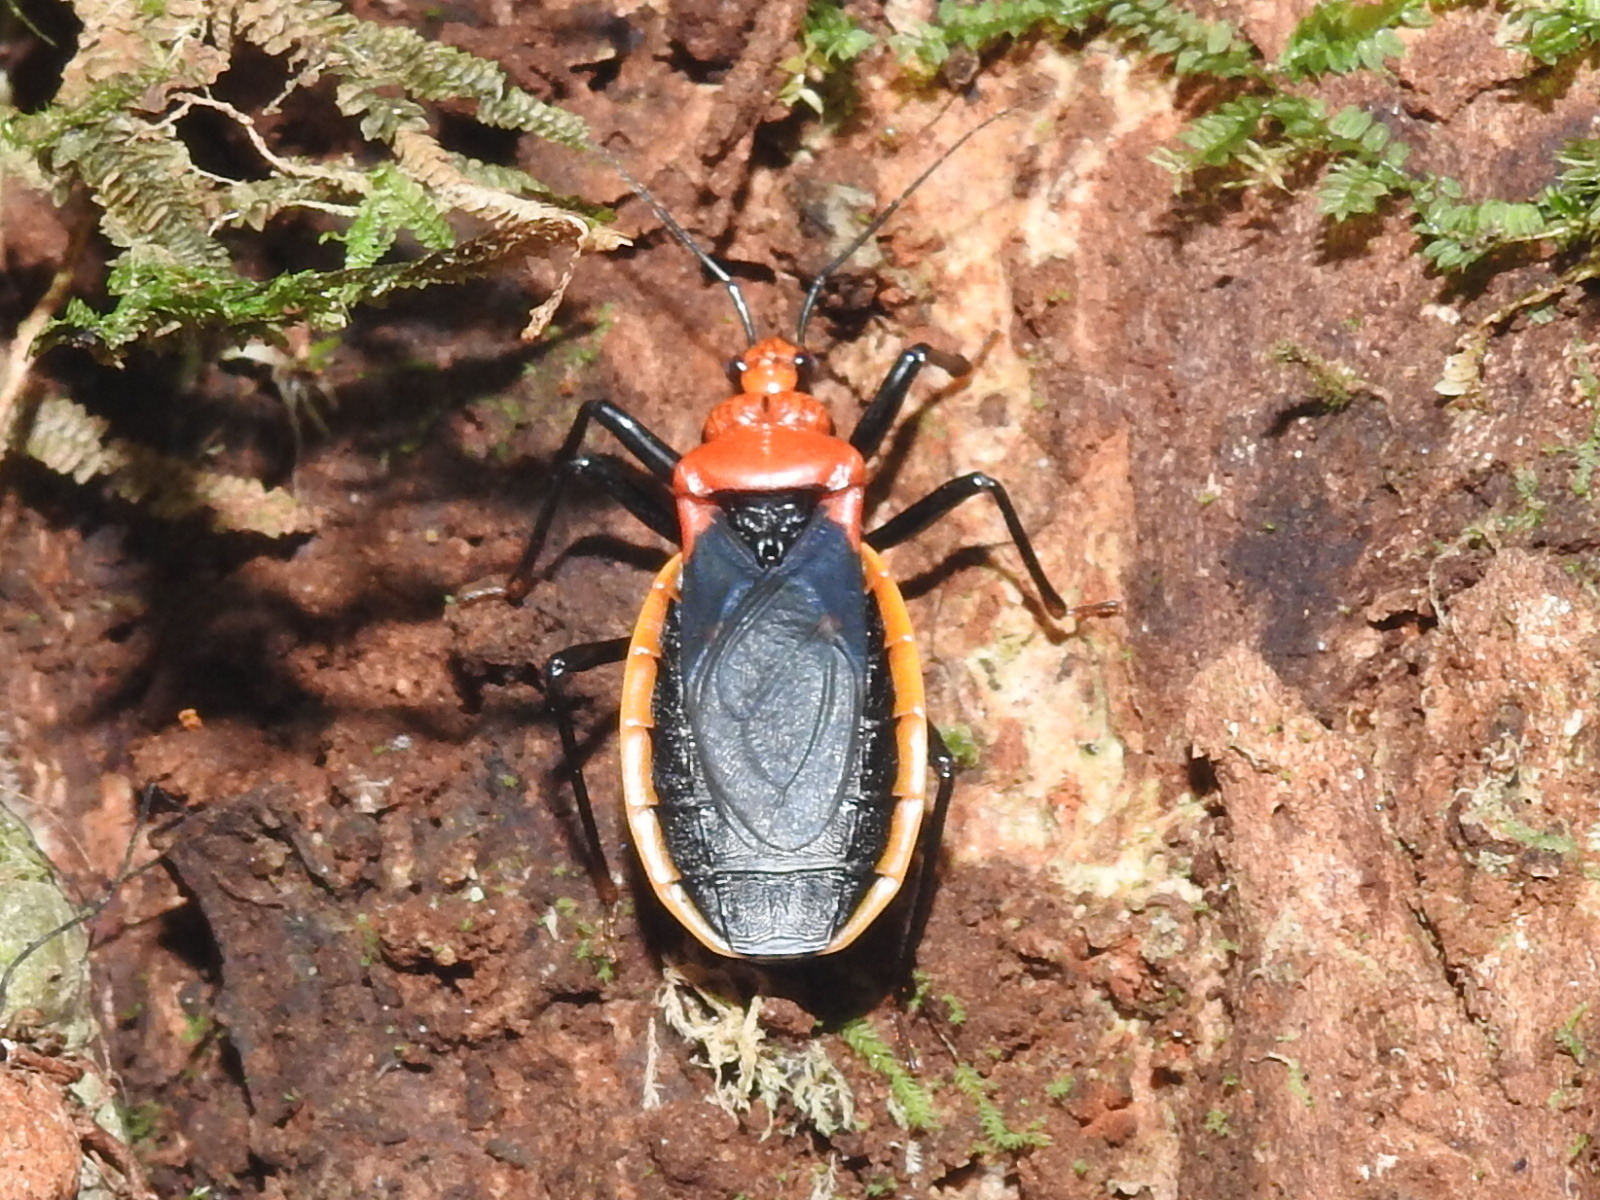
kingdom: Animalia
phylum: Arthropoda
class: Insecta
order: Hemiptera
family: Reduviidae
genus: Rhiginia
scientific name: Rhiginia crudelis
